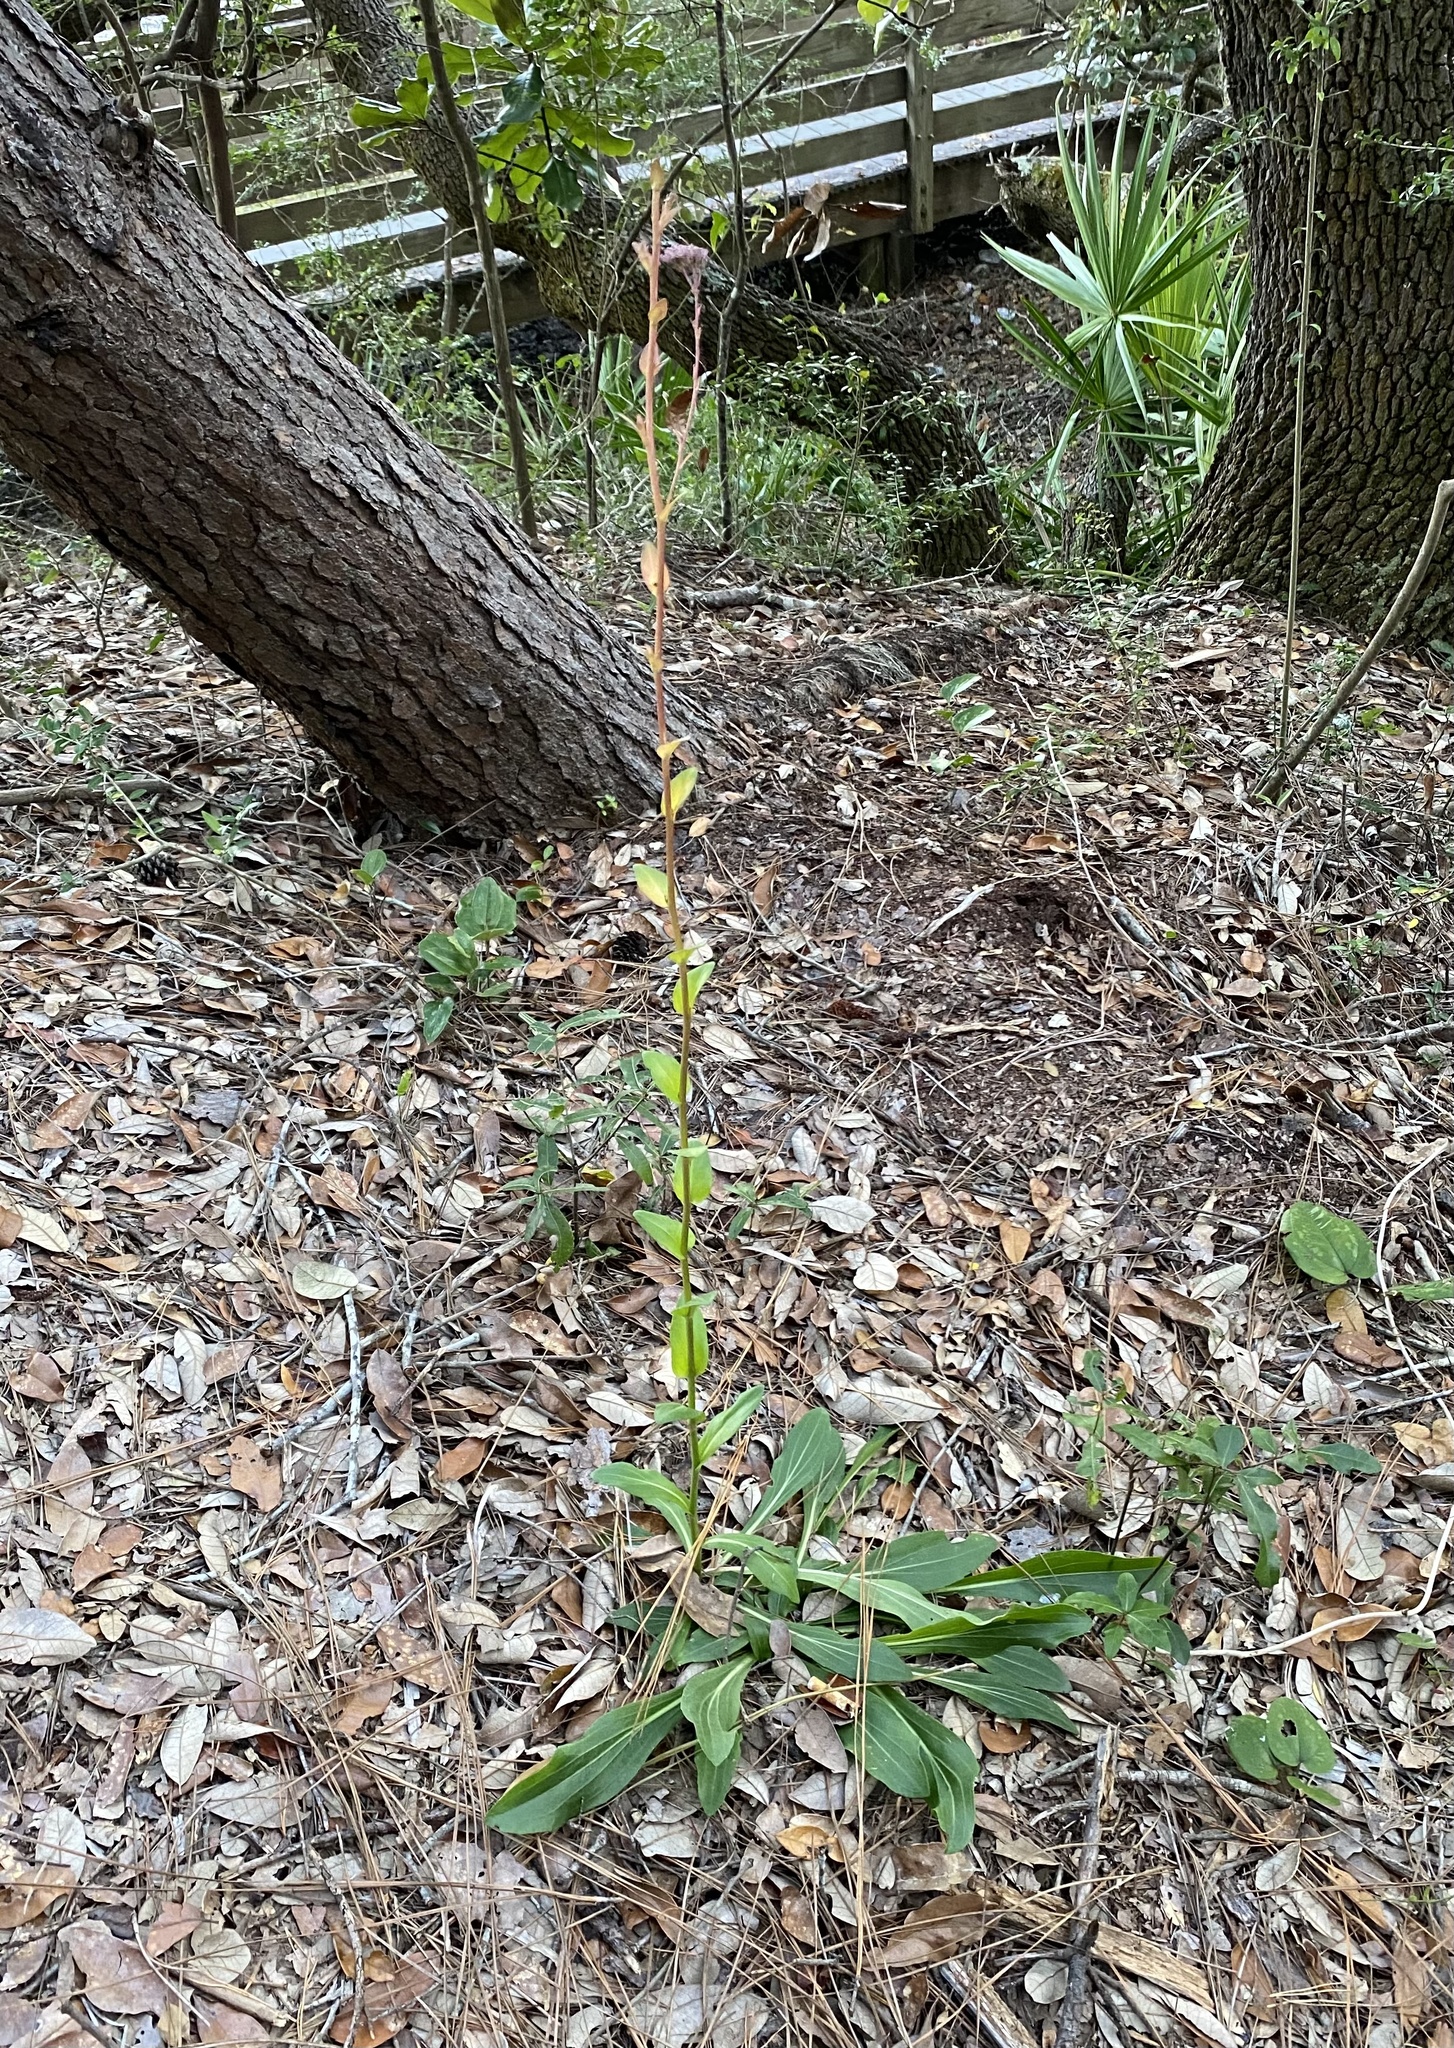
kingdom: Plantae
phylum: Tracheophyta
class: Magnoliopsida
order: Asterales
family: Asteraceae
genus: Carphephorus
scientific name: Carphephorus odoratissimus
